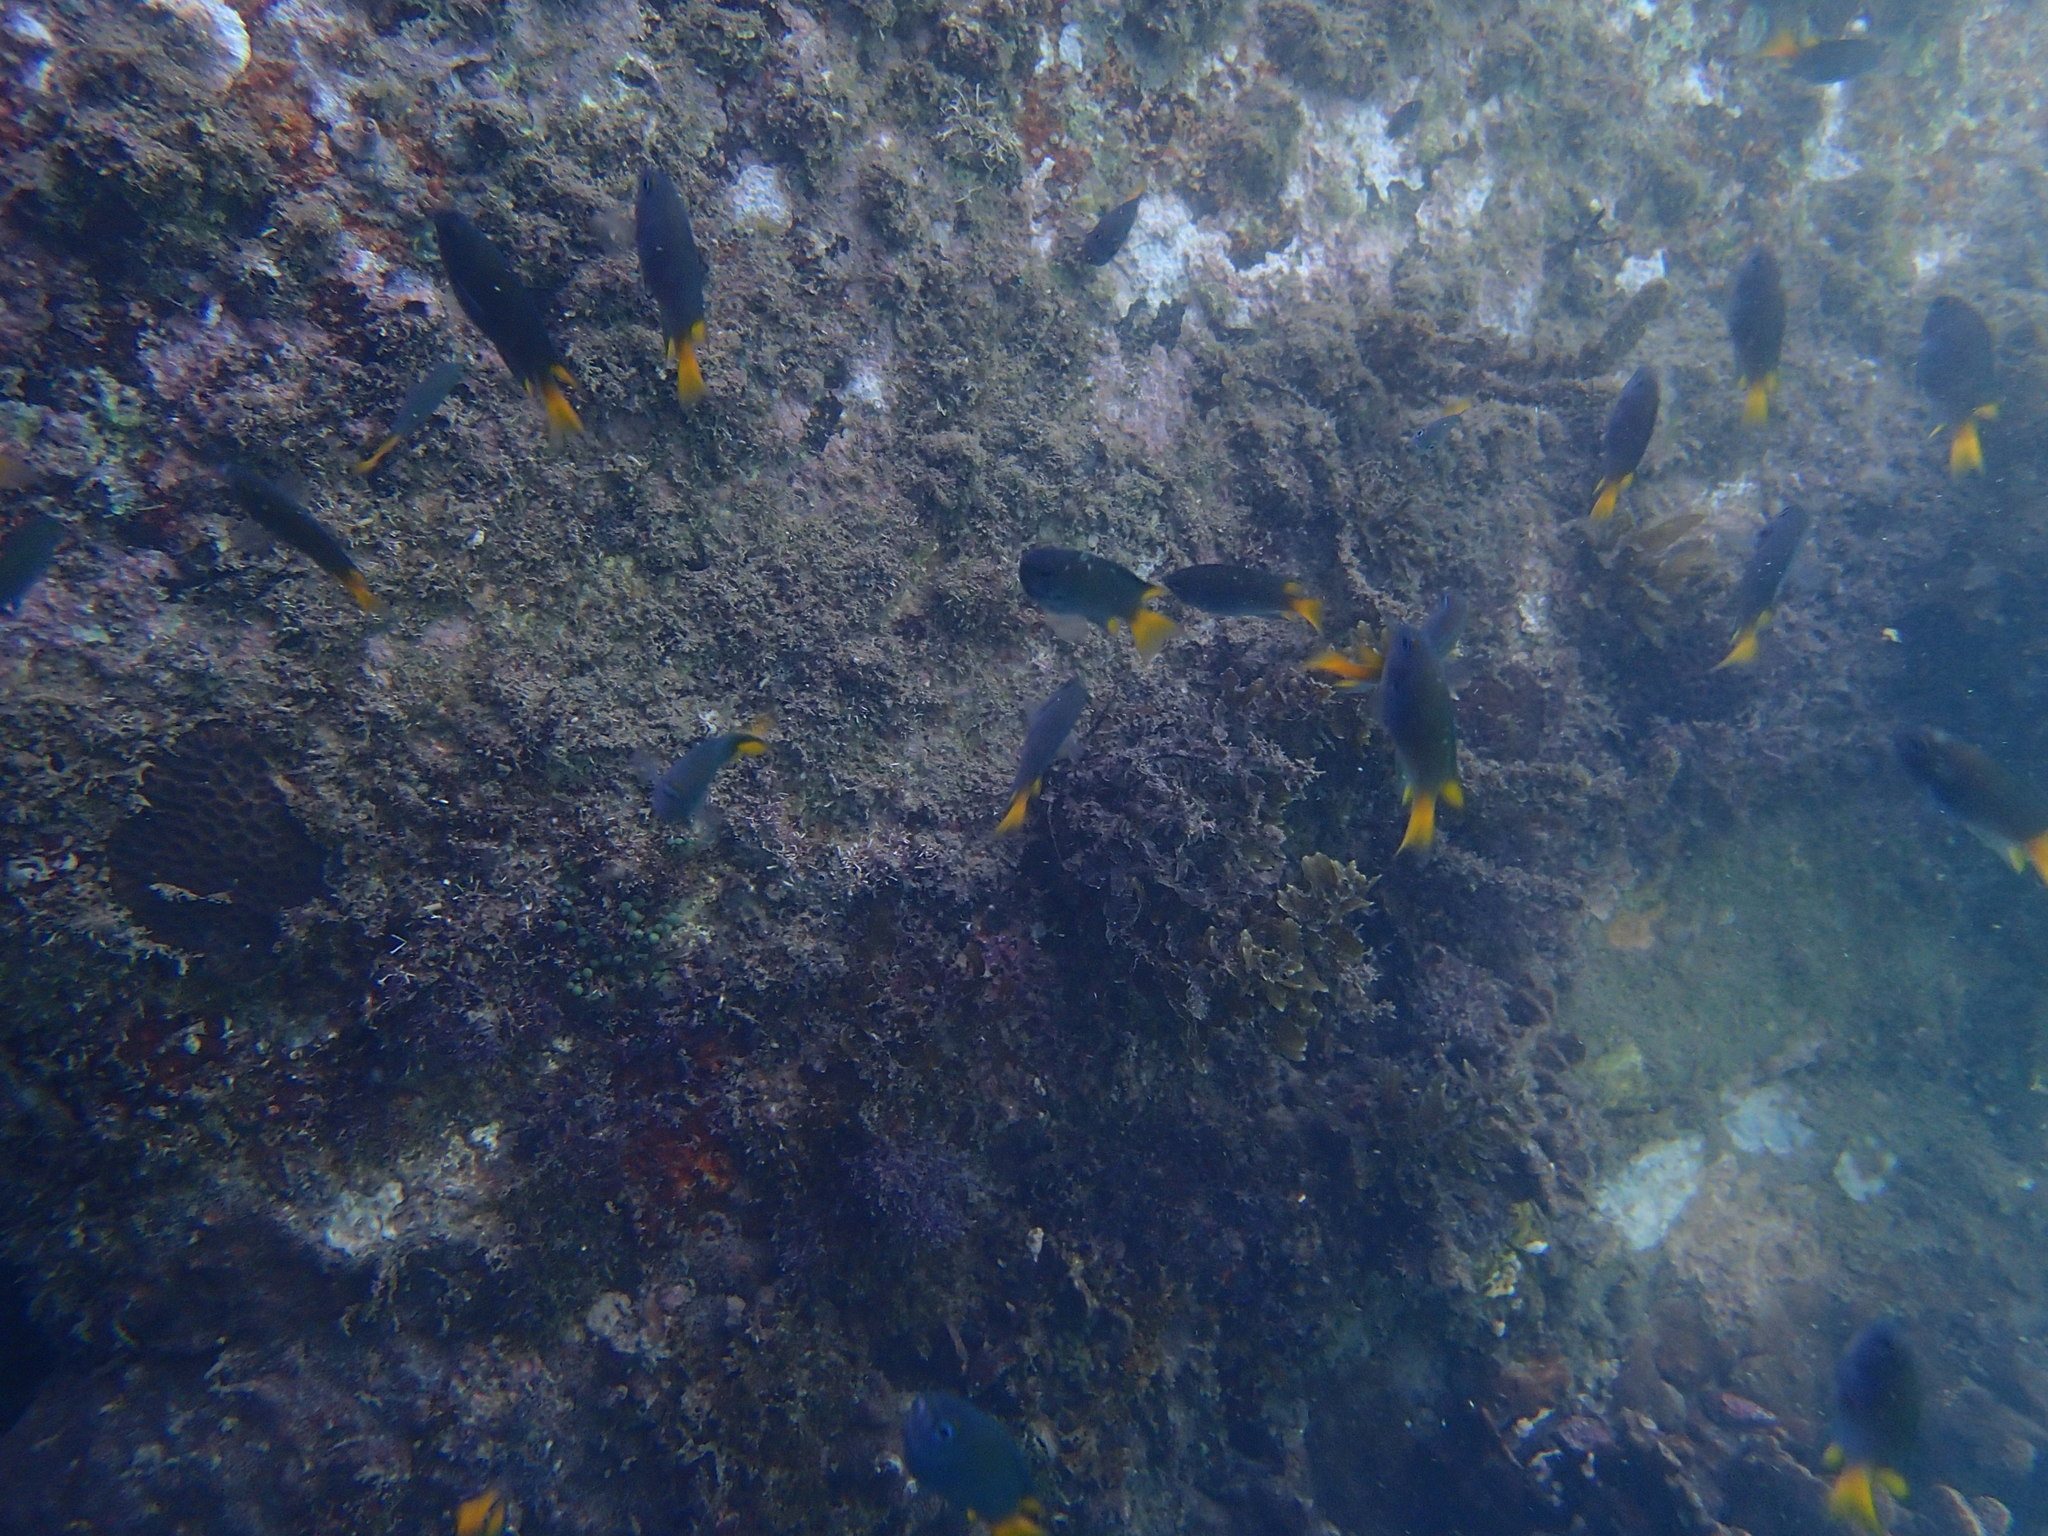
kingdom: Animalia
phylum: Chordata
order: Perciformes
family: Pomacentridae
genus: Neopomacentrus
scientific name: Neopomacentrus bankieri
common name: Chinese damsel
